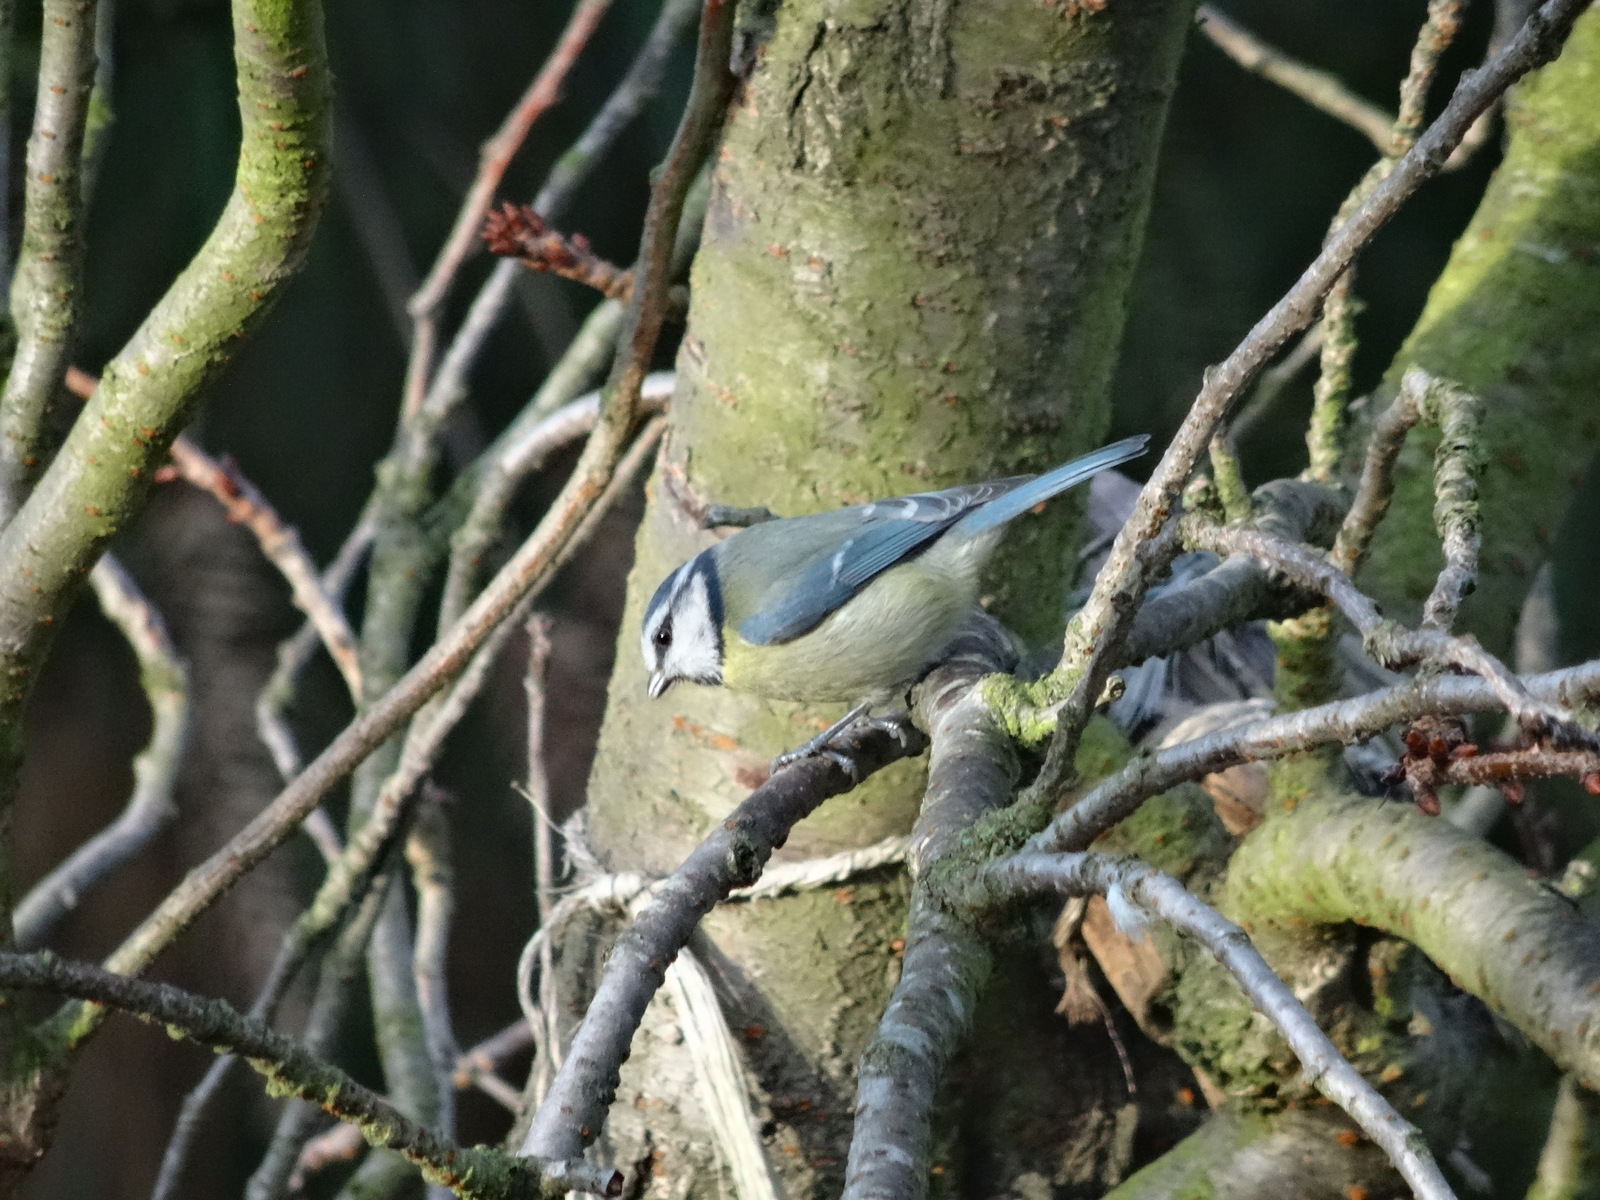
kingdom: Animalia
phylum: Chordata
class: Aves
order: Passeriformes
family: Paridae
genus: Cyanistes
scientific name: Cyanistes caeruleus
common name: Eurasian blue tit
